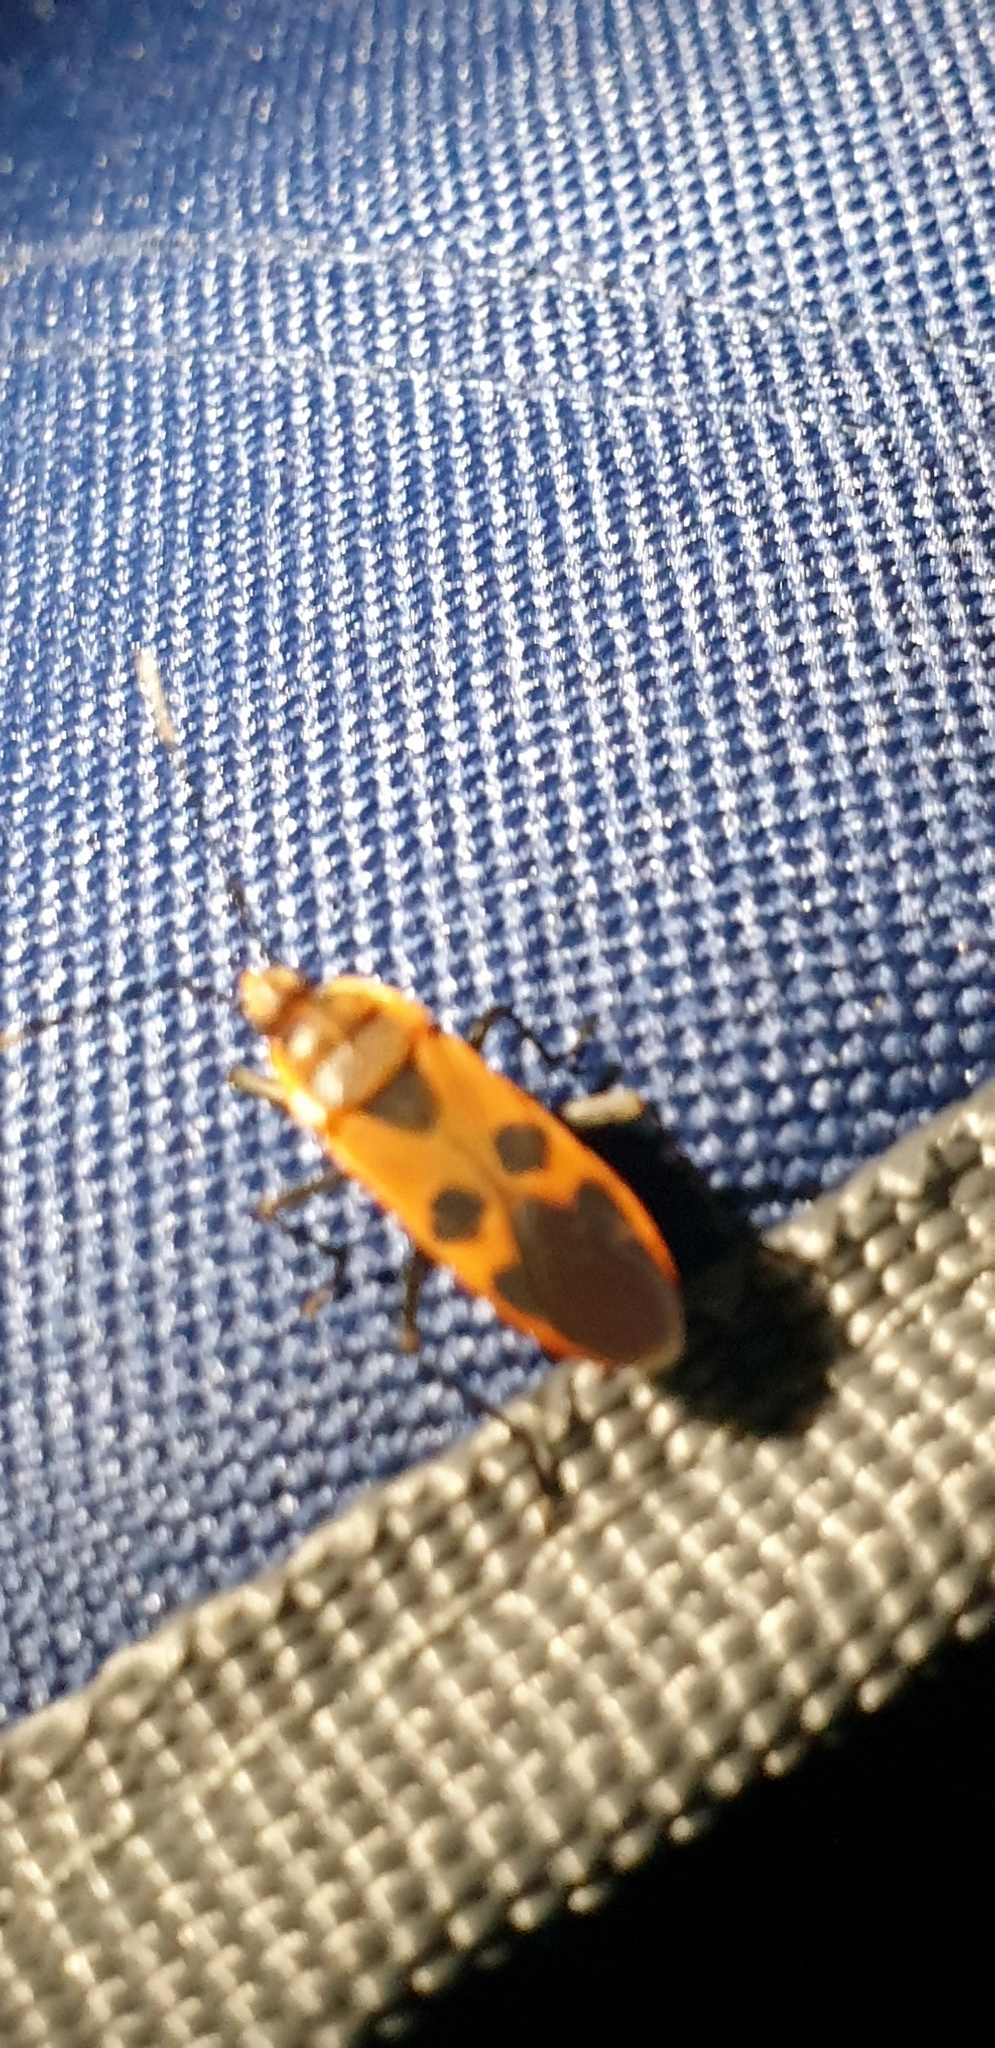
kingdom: Animalia
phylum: Arthropoda
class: Insecta
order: Hemiptera
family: Largidae
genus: Physopelta
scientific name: Physopelta gutta
